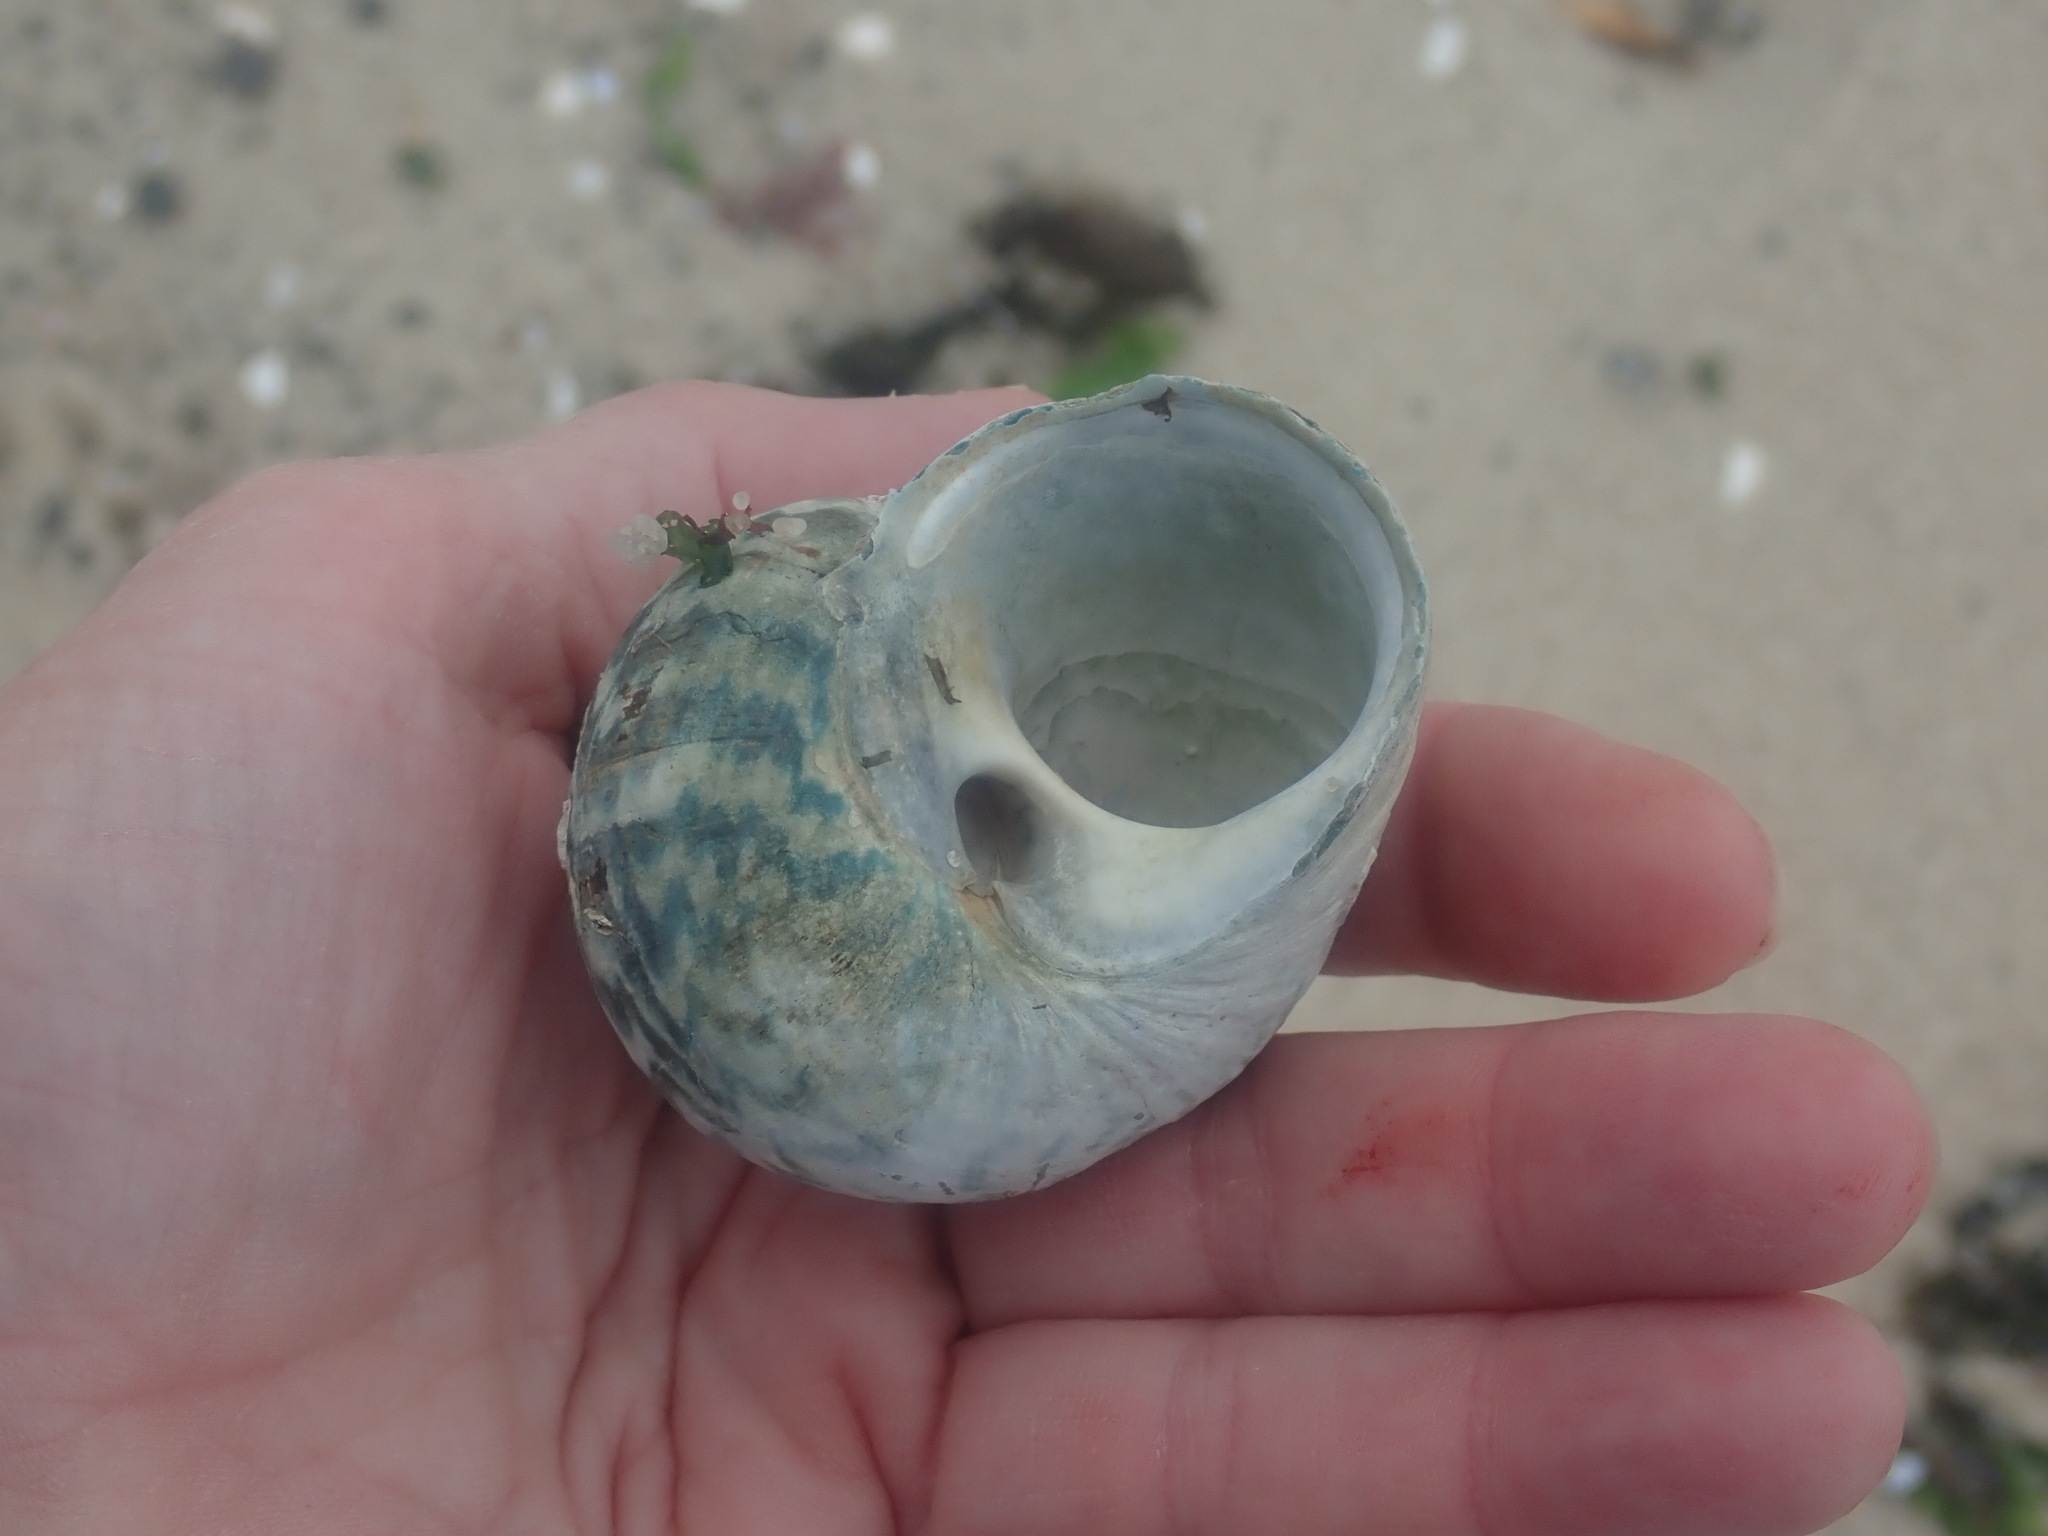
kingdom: Animalia
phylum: Mollusca
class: Gastropoda
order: Trochida
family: Turbinidae
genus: Lunella
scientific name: Lunella undulata
